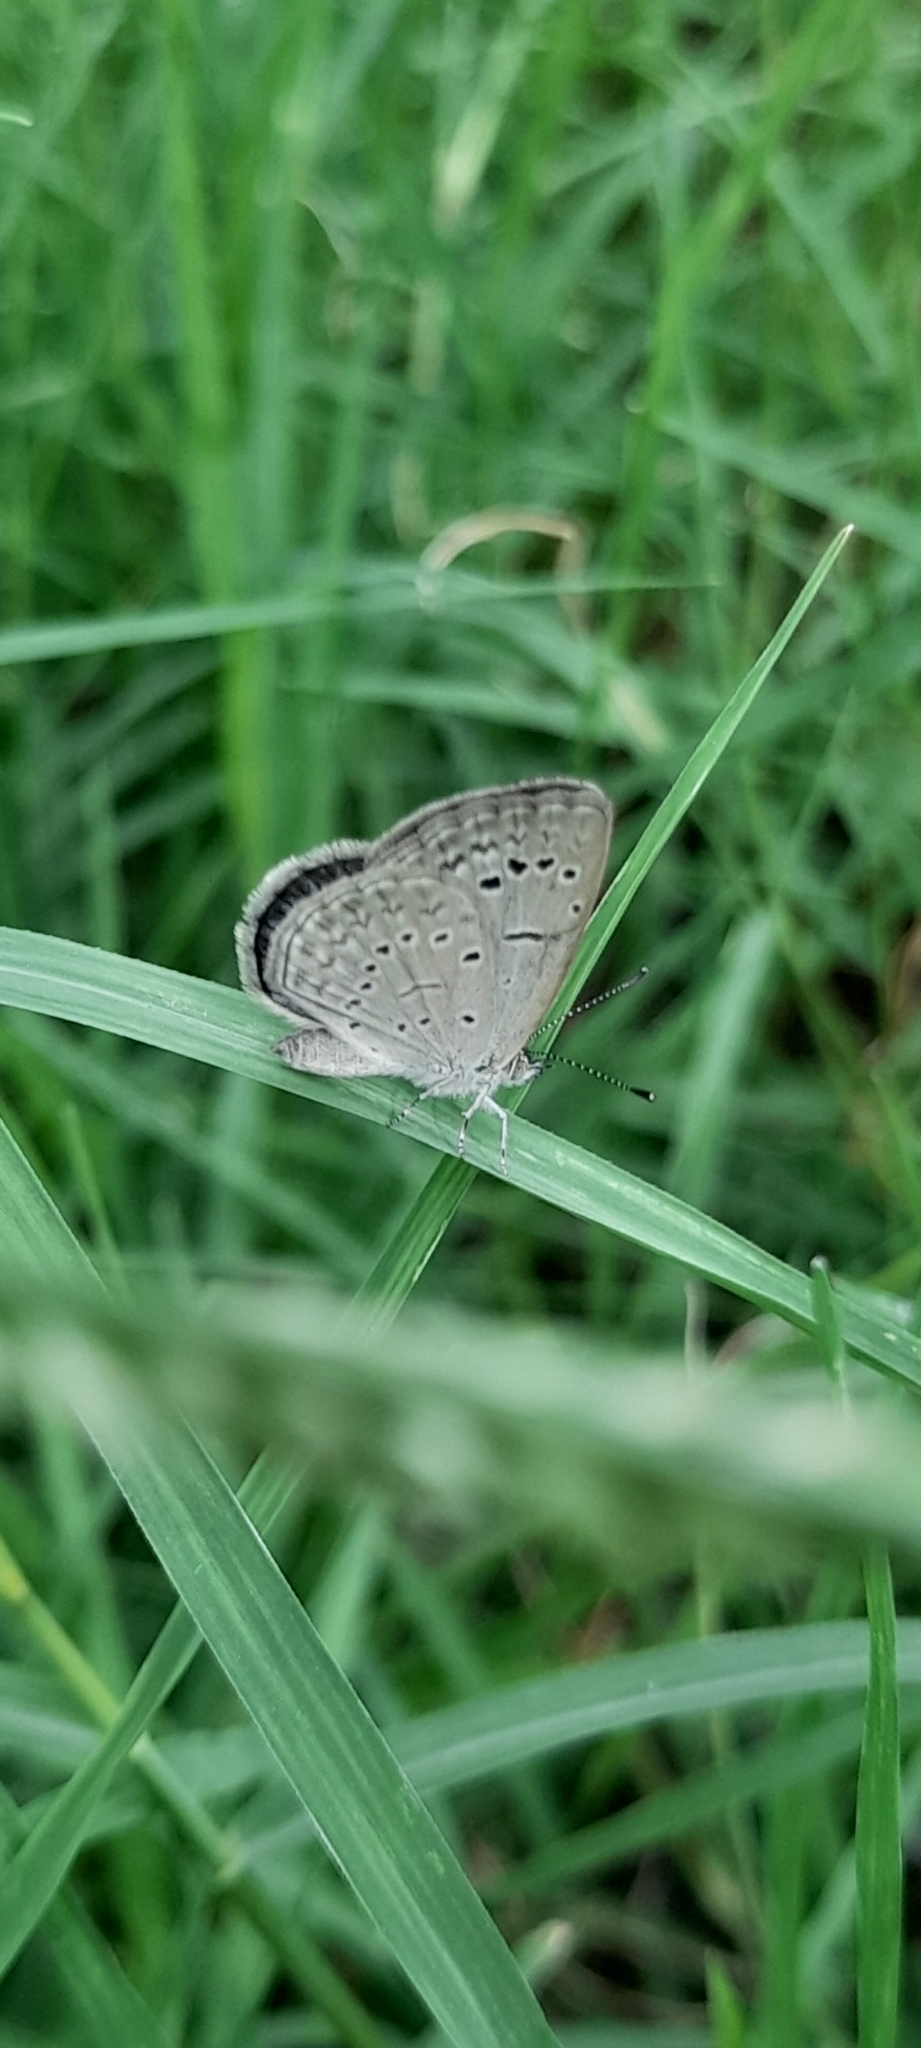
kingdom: Animalia
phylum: Arthropoda
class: Insecta
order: Lepidoptera
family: Lycaenidae
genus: Pseudozizeeria
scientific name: Pseudozizeeria maha
